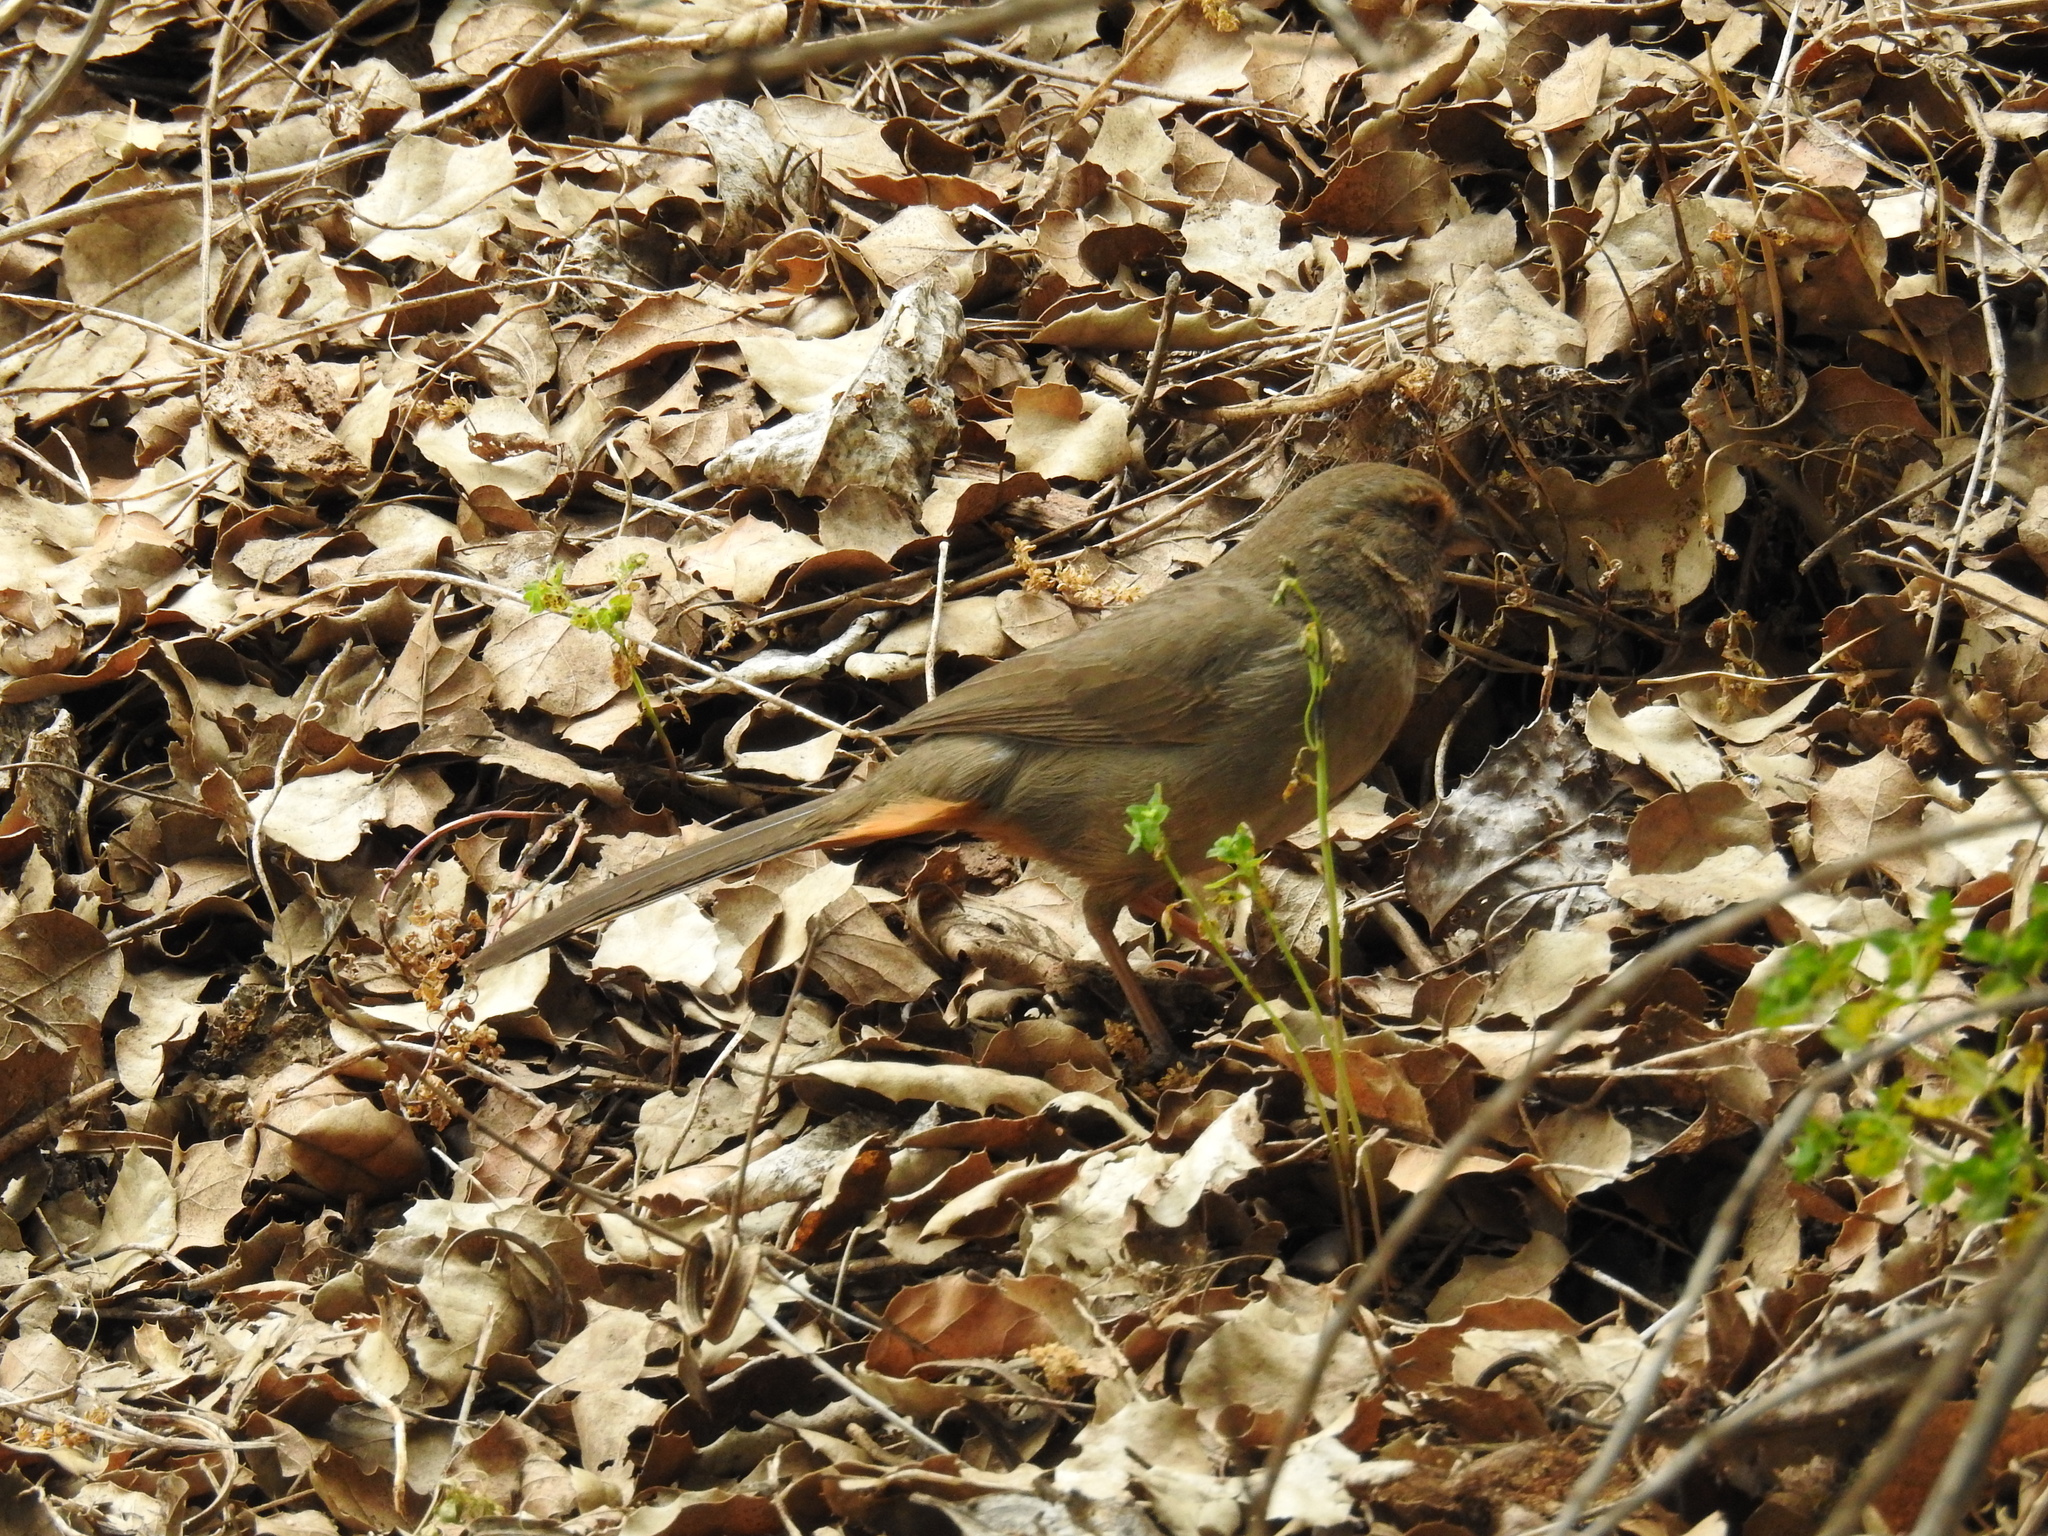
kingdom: Animalia
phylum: Chordata
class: Aves
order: Passeriformes
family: Passerellidae
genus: Melozone
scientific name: Melozone crissalis
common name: California towhee
